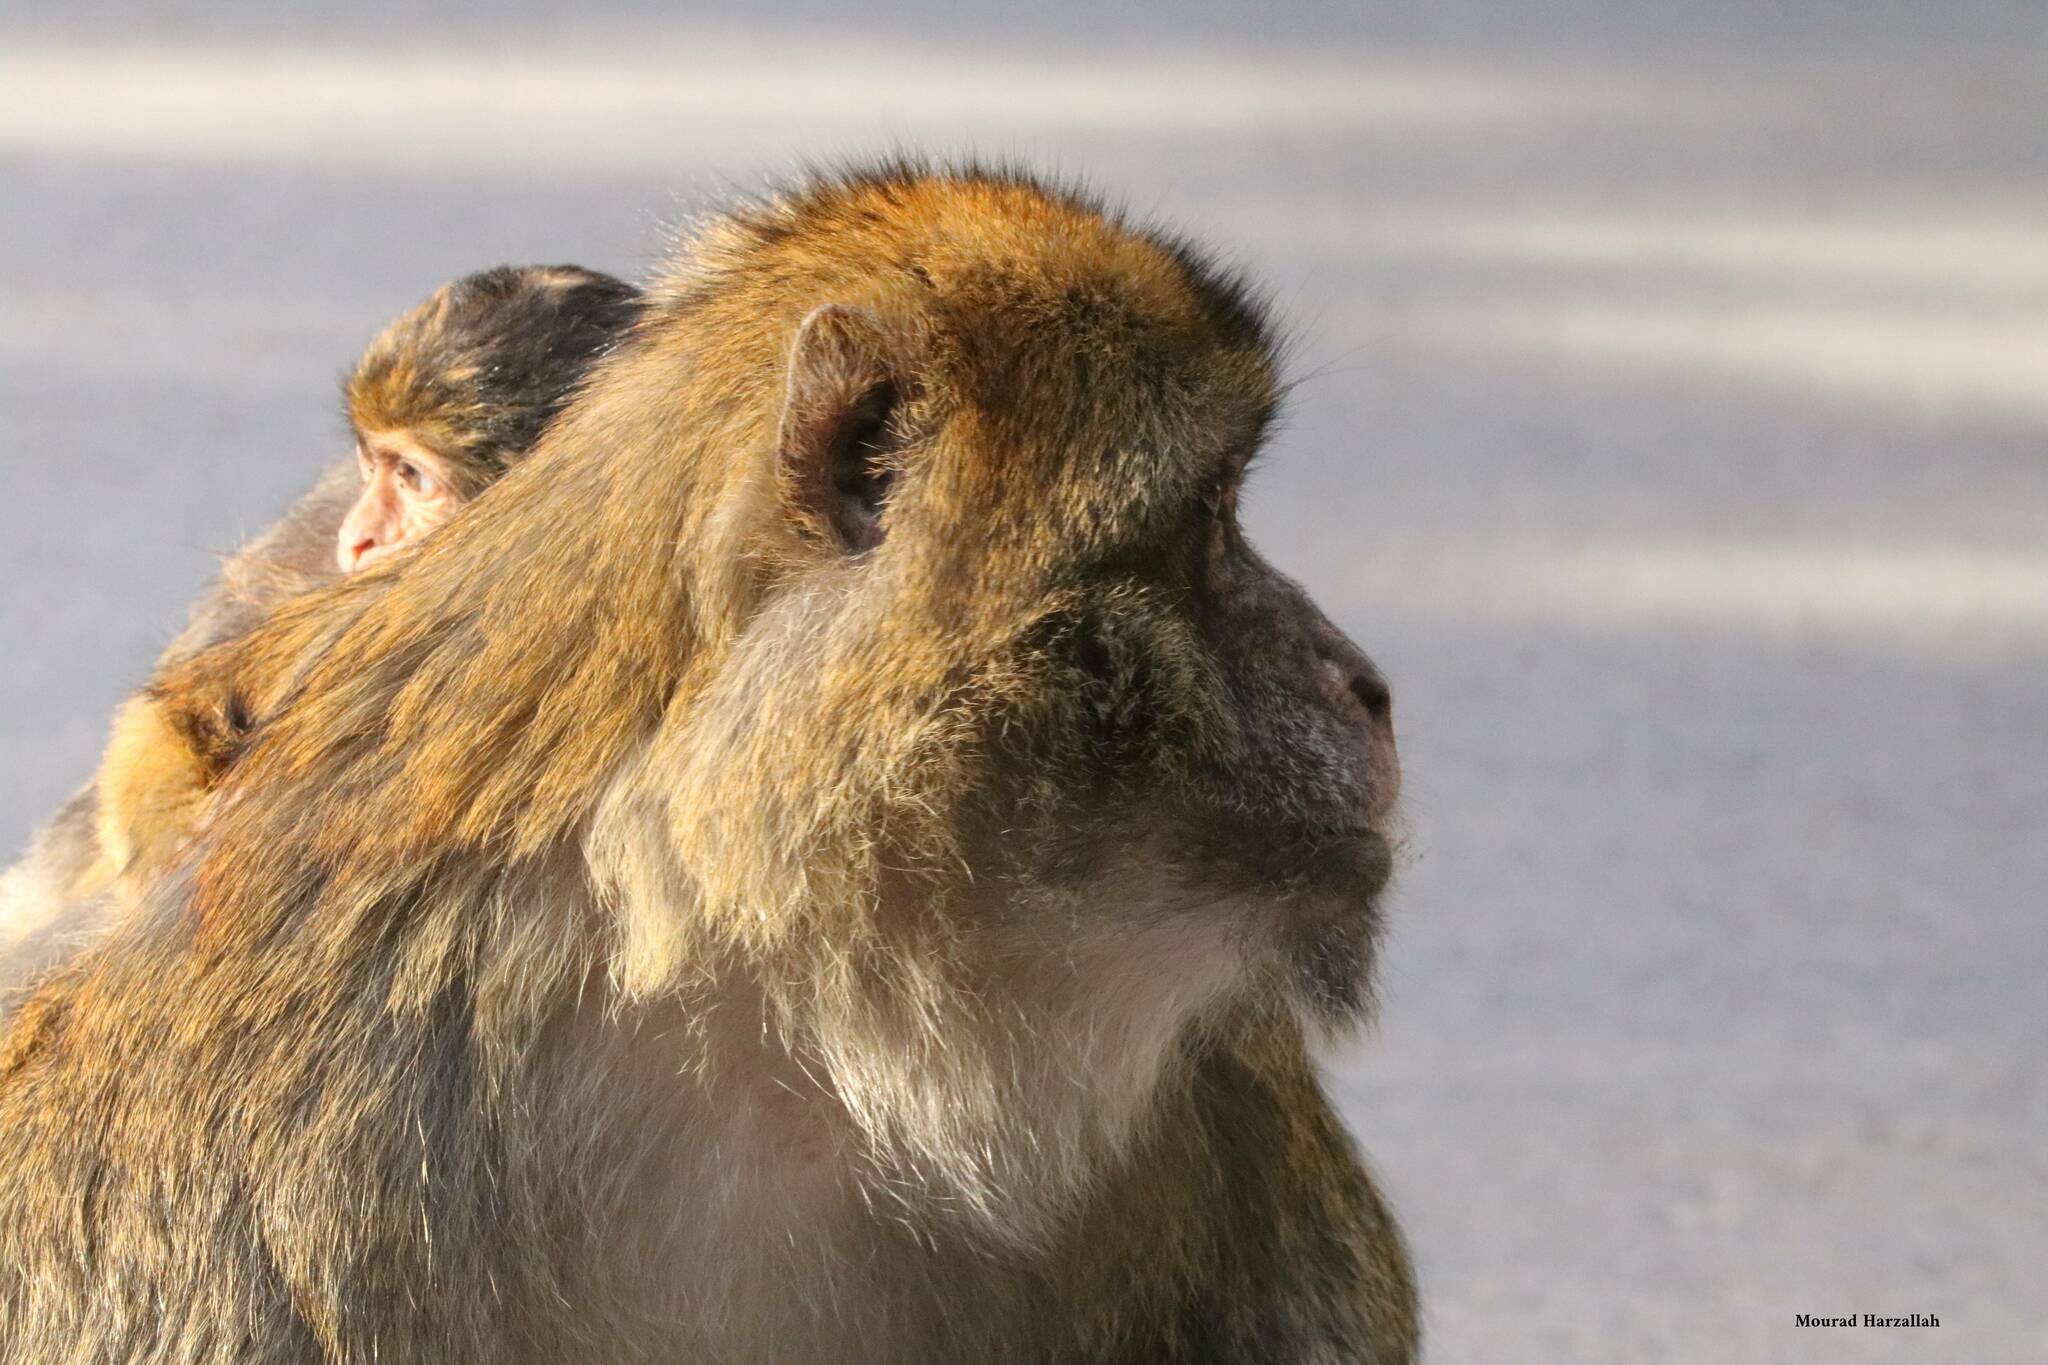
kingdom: Animalia
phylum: Chordata
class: Mammalia
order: Primates
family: Cercopithecidae
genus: Macaca
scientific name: Macaca sylvanus
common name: Barbary macaque
